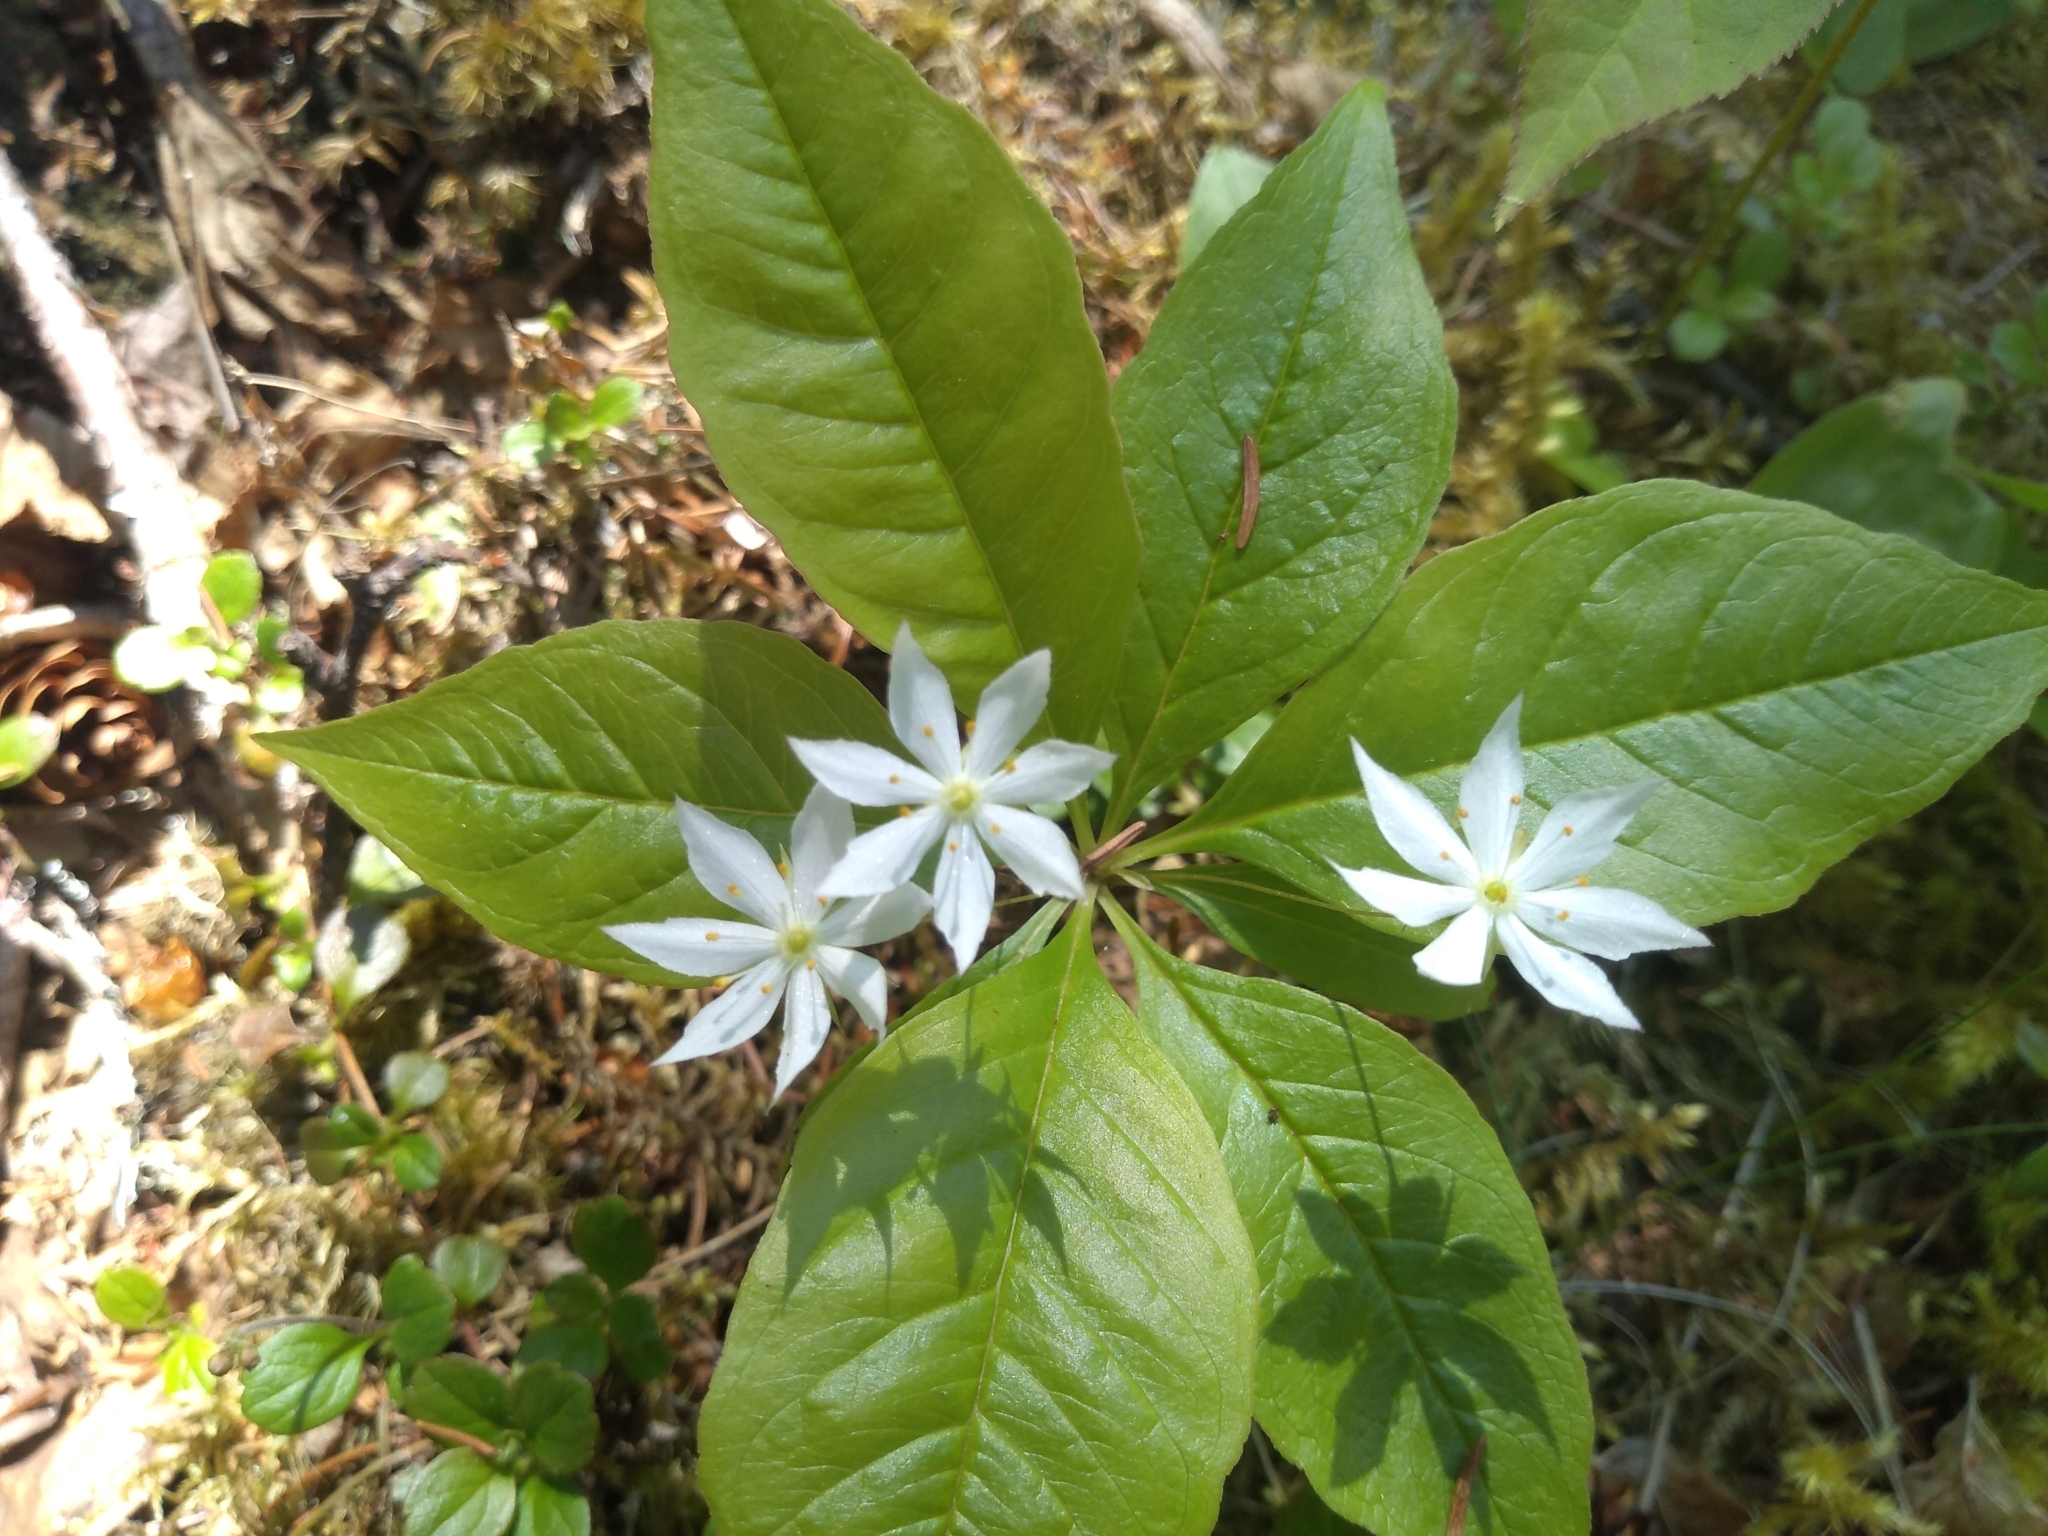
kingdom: Plantae
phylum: Tracheophyta
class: Magnoliopsida
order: Ericales
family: Primulaceae
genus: Lysimachia
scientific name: Lysimachia borealis
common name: American starflower
